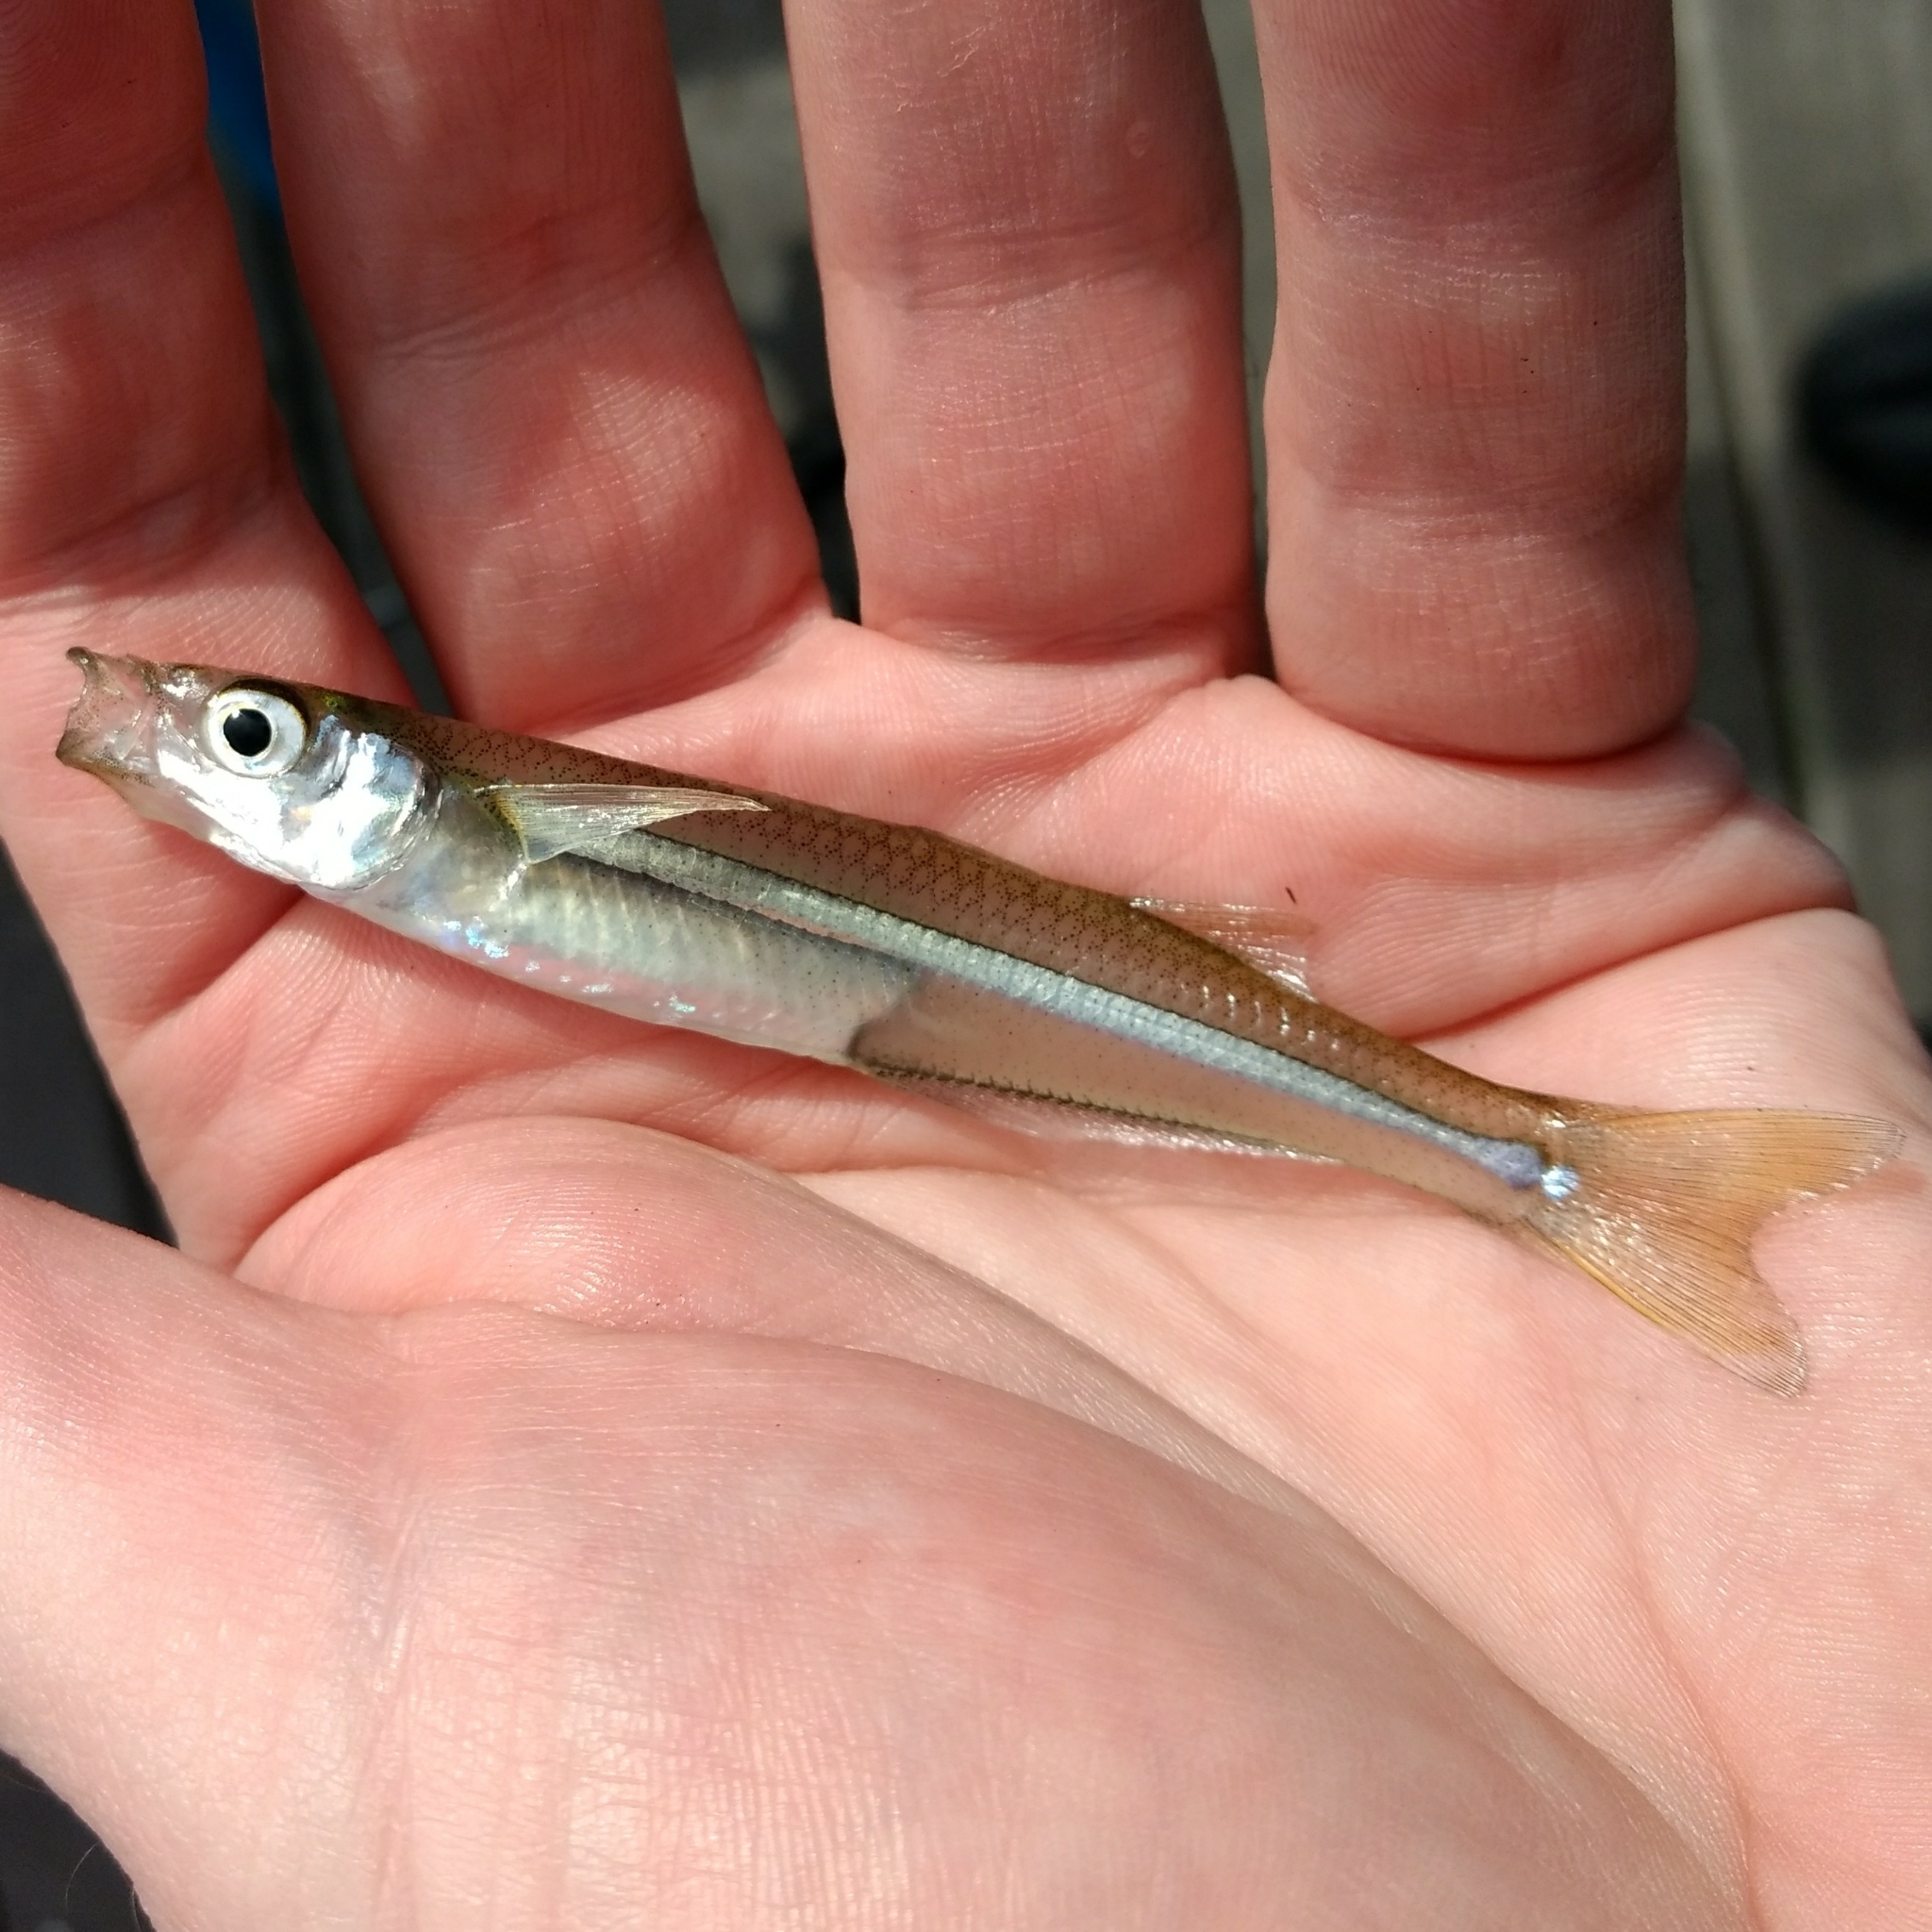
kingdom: Animalia
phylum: Chordata
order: Atheriniformes
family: Atherinopsidae
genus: Menidia
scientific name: Menidia menidia
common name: Atlantic silverside
